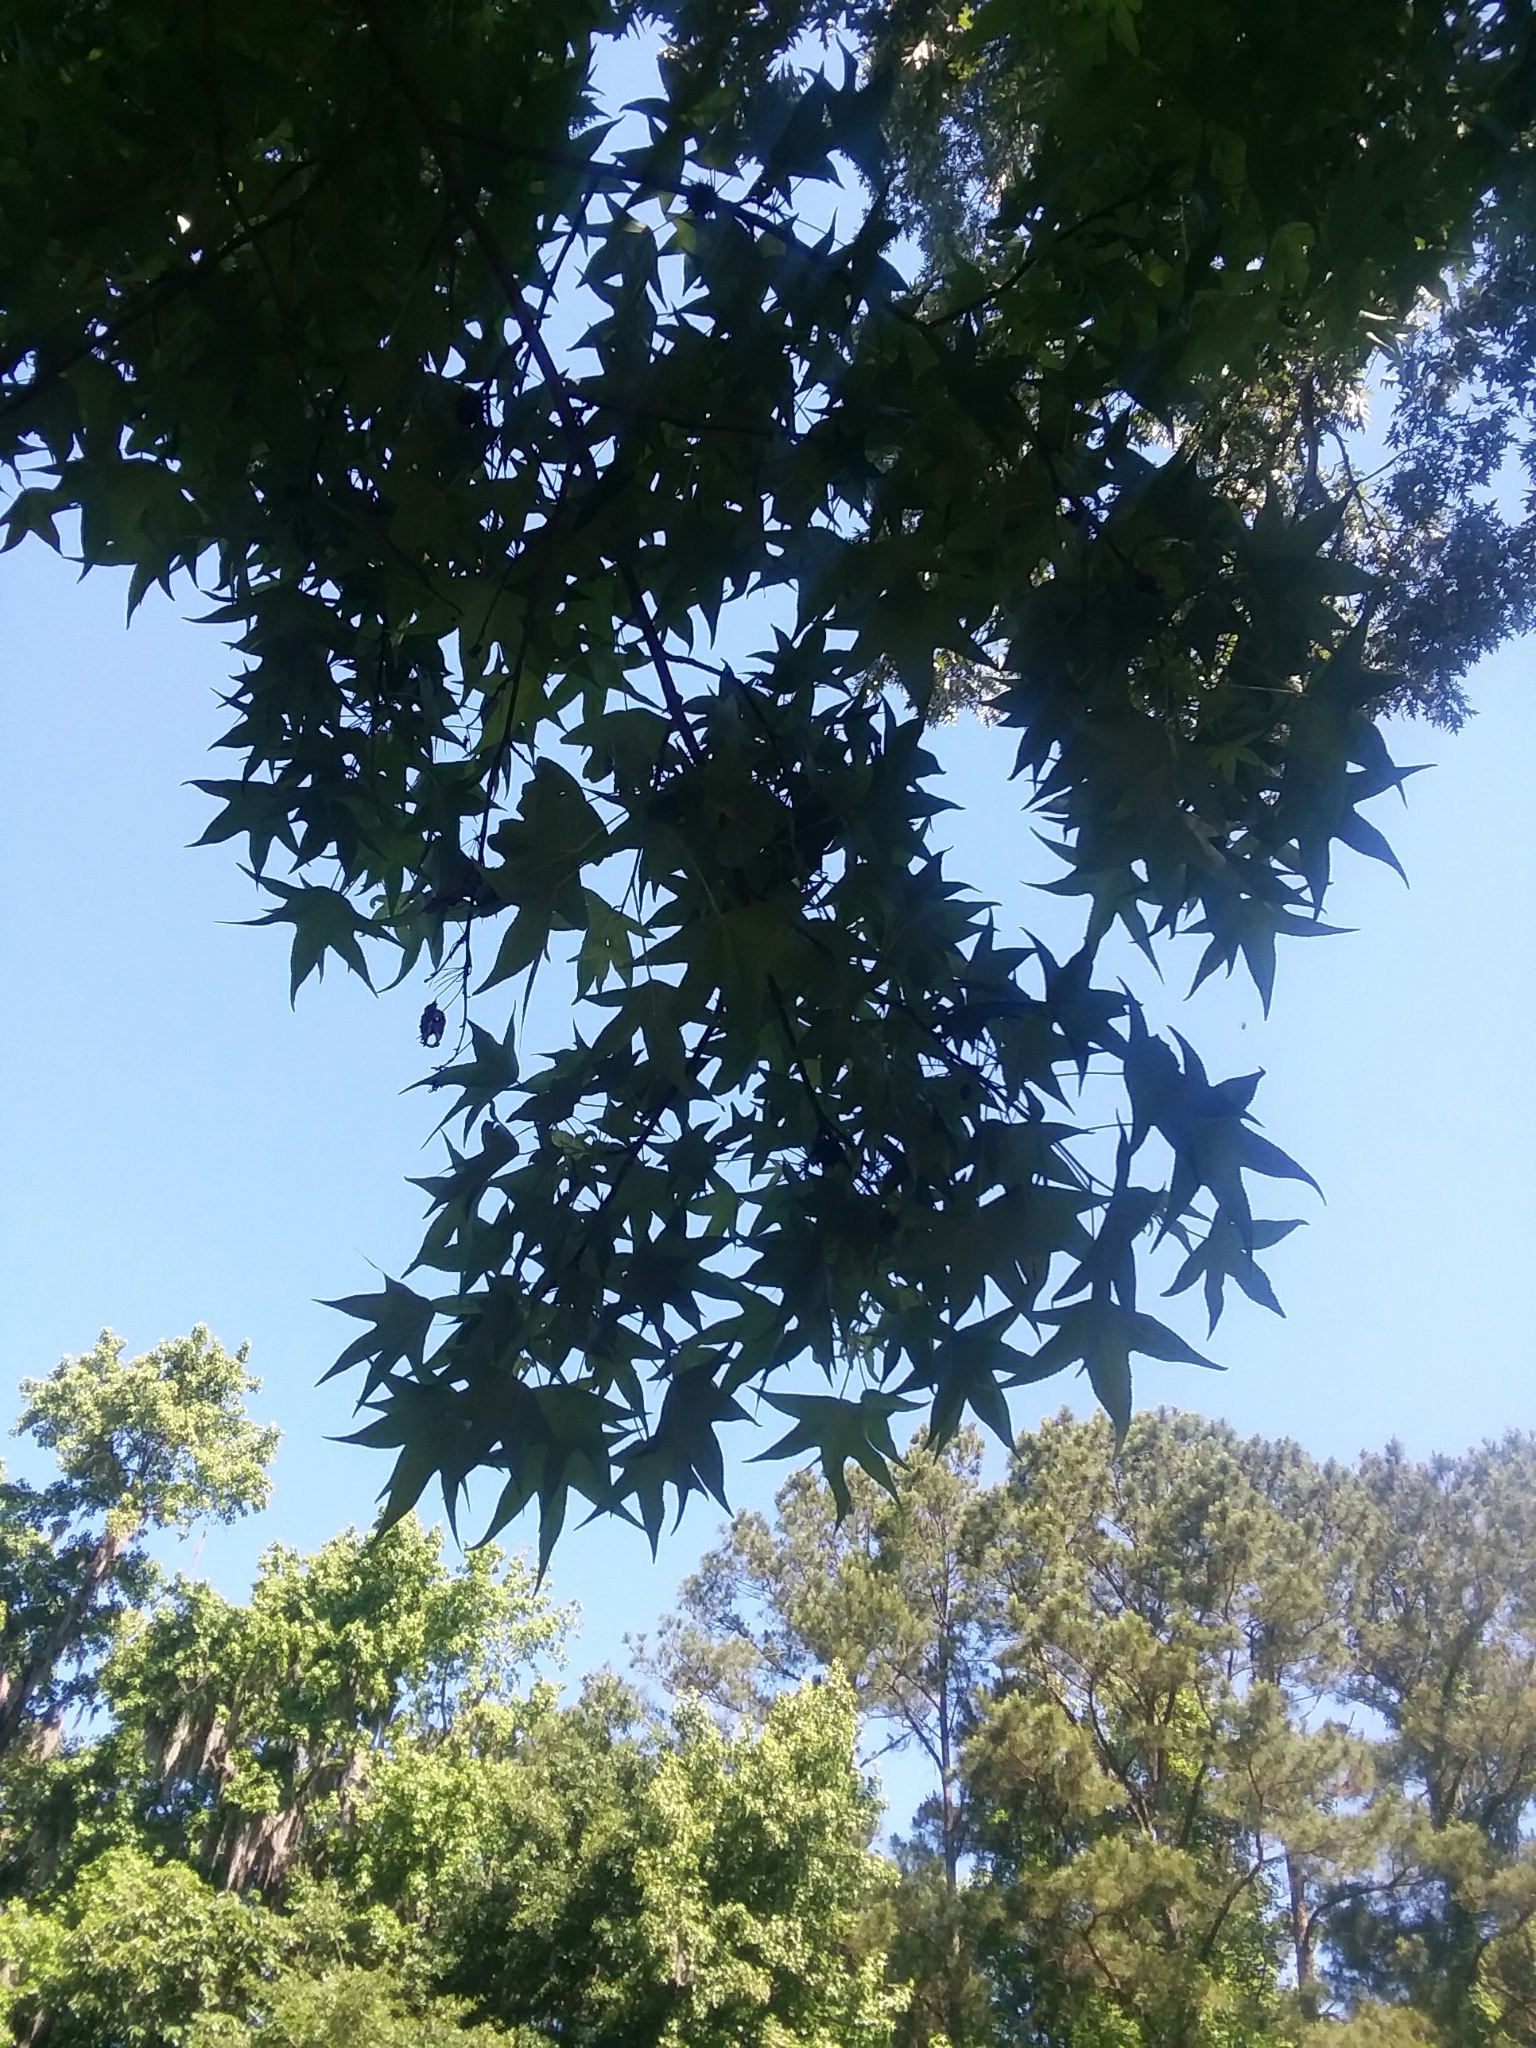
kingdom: Plantae
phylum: Tracheophyta
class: Magnoliopsida
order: Saxifragales
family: Altingiaceae
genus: Liquidambar
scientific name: Liquidambar styraciflua
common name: Sweet gum
